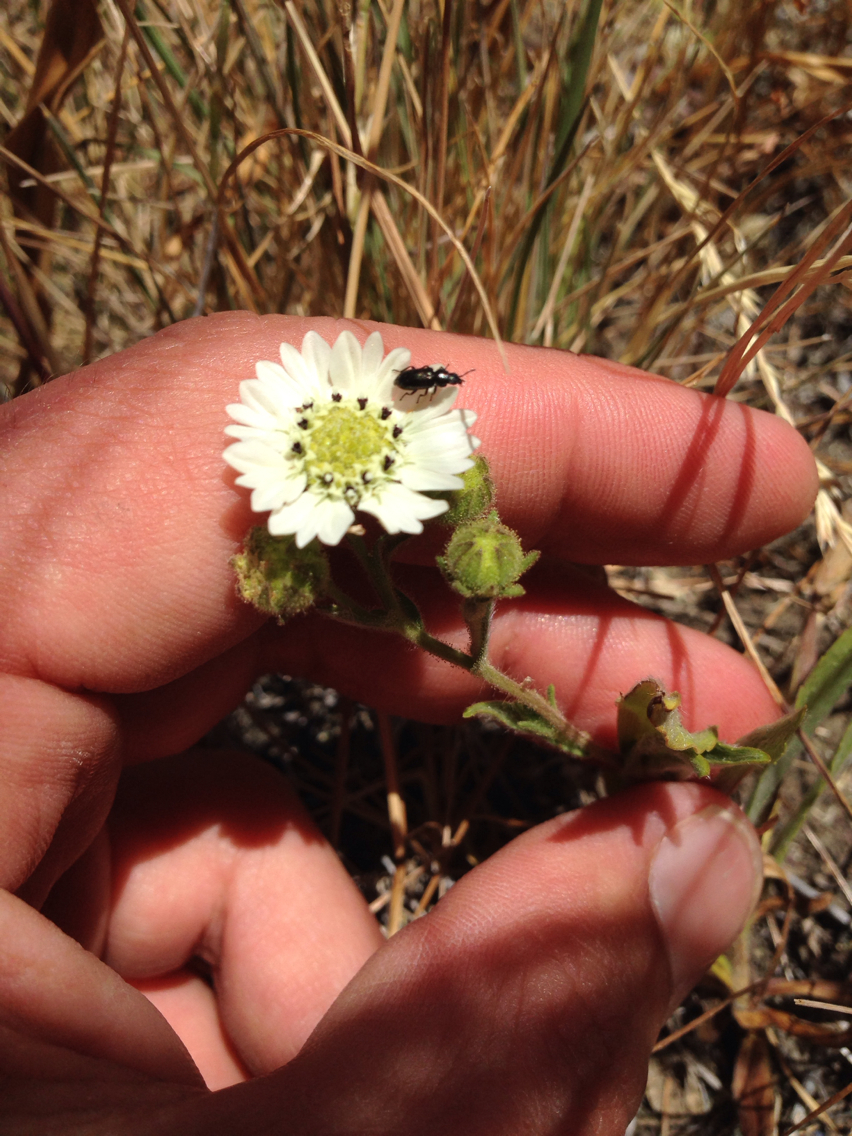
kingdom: Plantae
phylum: Tracheophyta
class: Magnoliopsida
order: Asterales
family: Asteraceae
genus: Hemizonia
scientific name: Hemizonia congesta
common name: Hayfield tarweed
